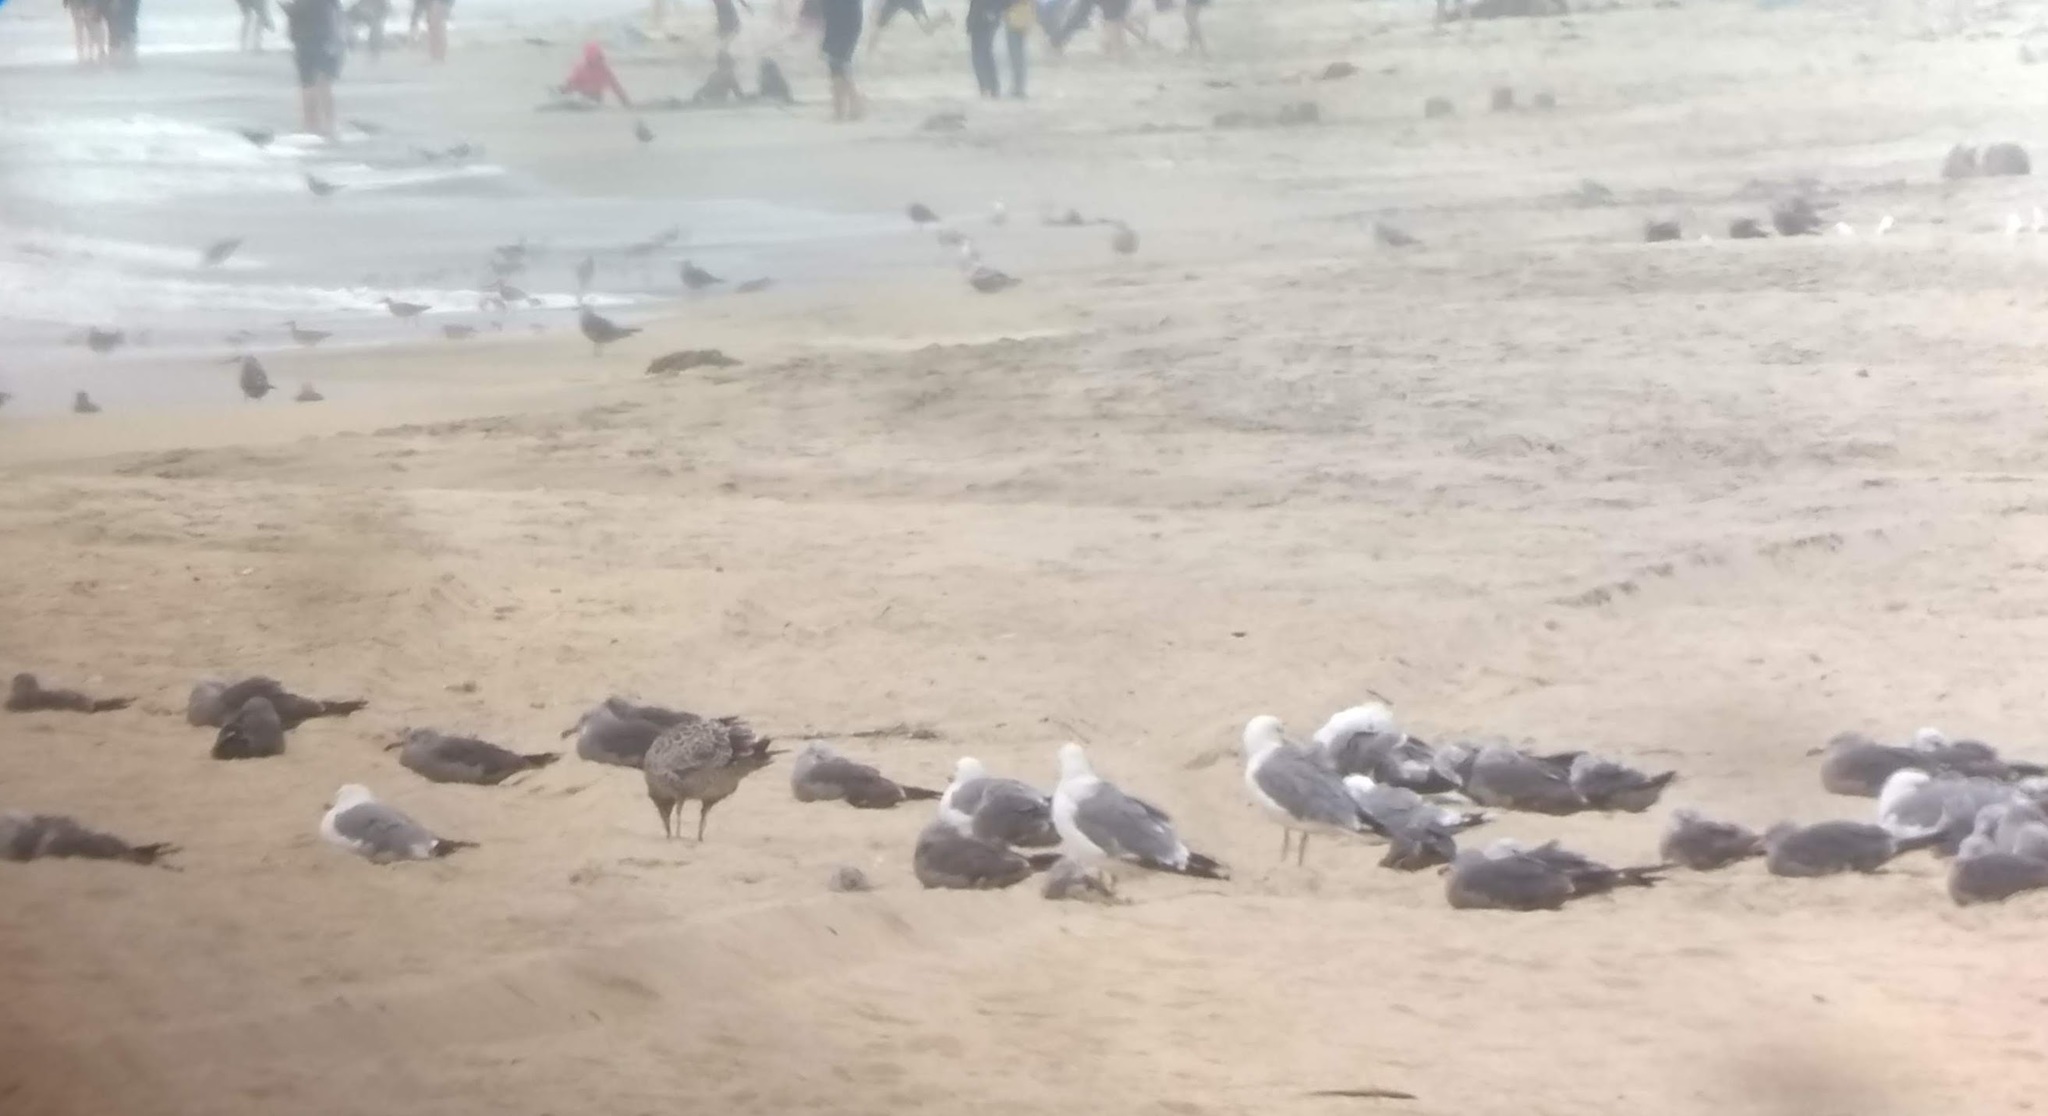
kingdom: Animalia
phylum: Chordata
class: Aves
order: Charadriiformes
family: Laridae
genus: Larus
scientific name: Larus heermanni
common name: Heermann's gull
